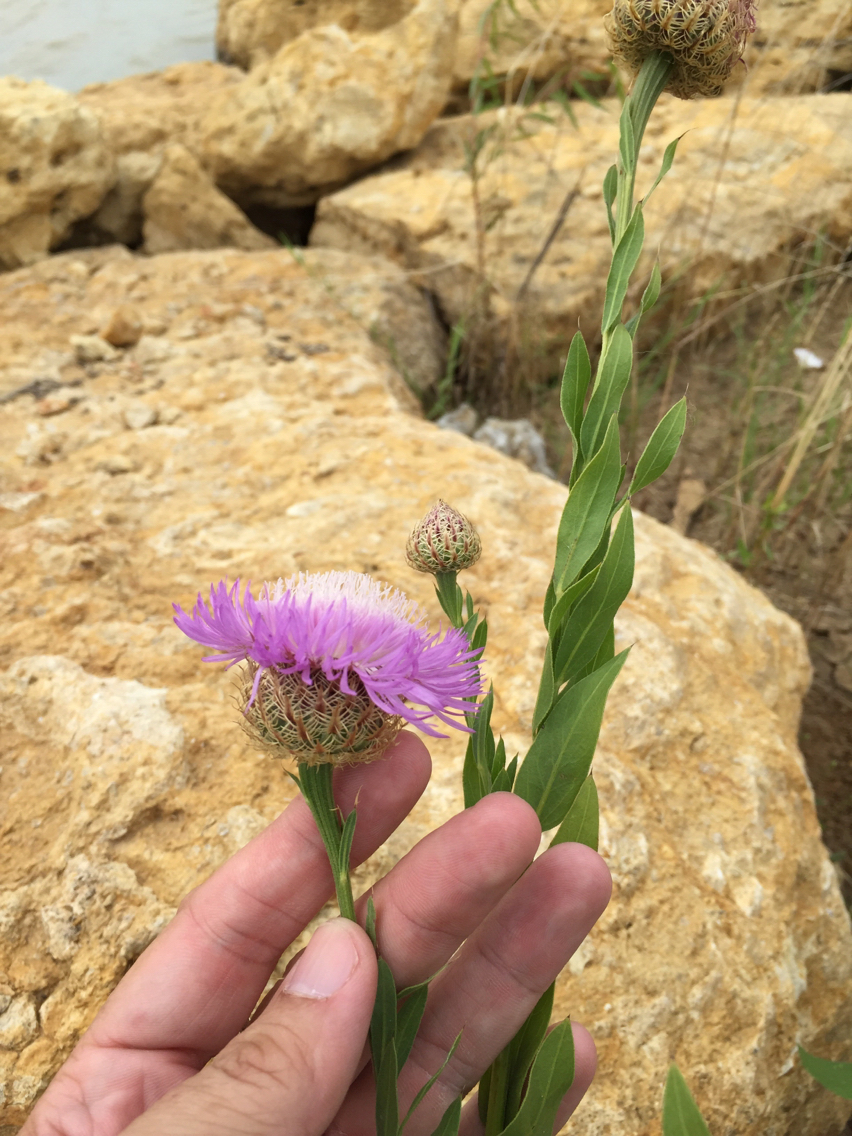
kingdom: Plantae
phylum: Tracheophyta
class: Magnoliopsida
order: Asterales
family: Asteraceae
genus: Plectocephalus
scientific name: Plectocephalus americanus
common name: American basket-flower
